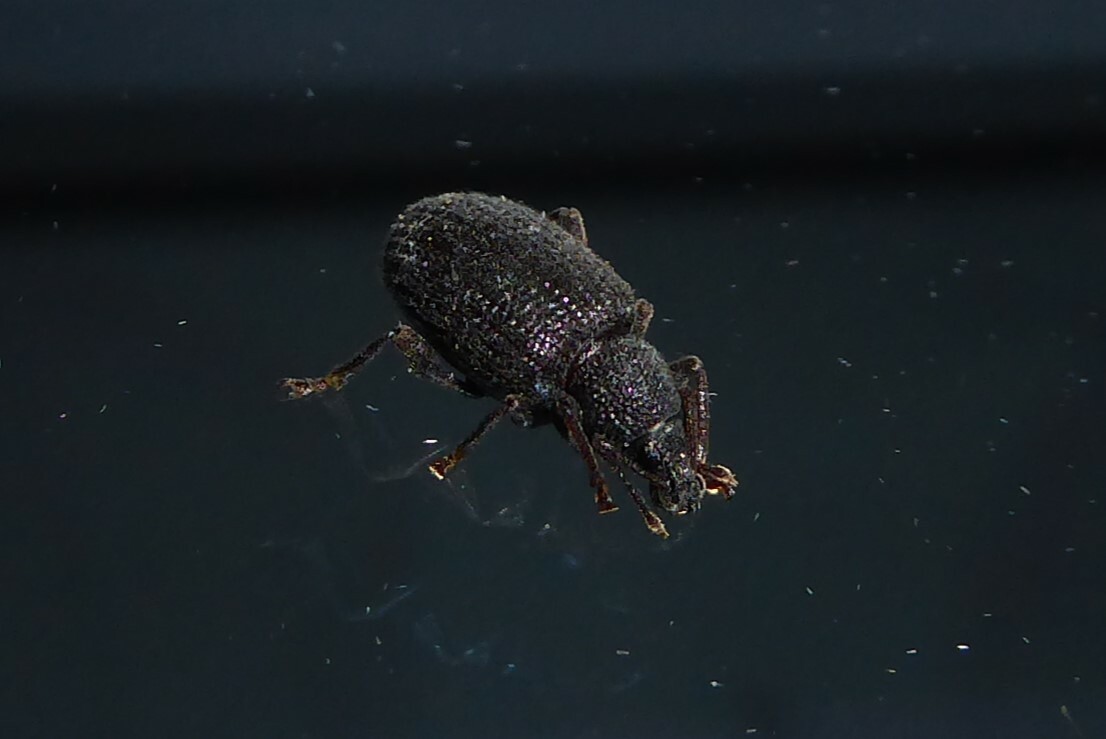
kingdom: Animalia
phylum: Arthropoda
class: Insecta
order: Coleoptera
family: Curculionidae
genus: Otiorhynchus
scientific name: Otiorhynchus rugosostriatus
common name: Weevil
